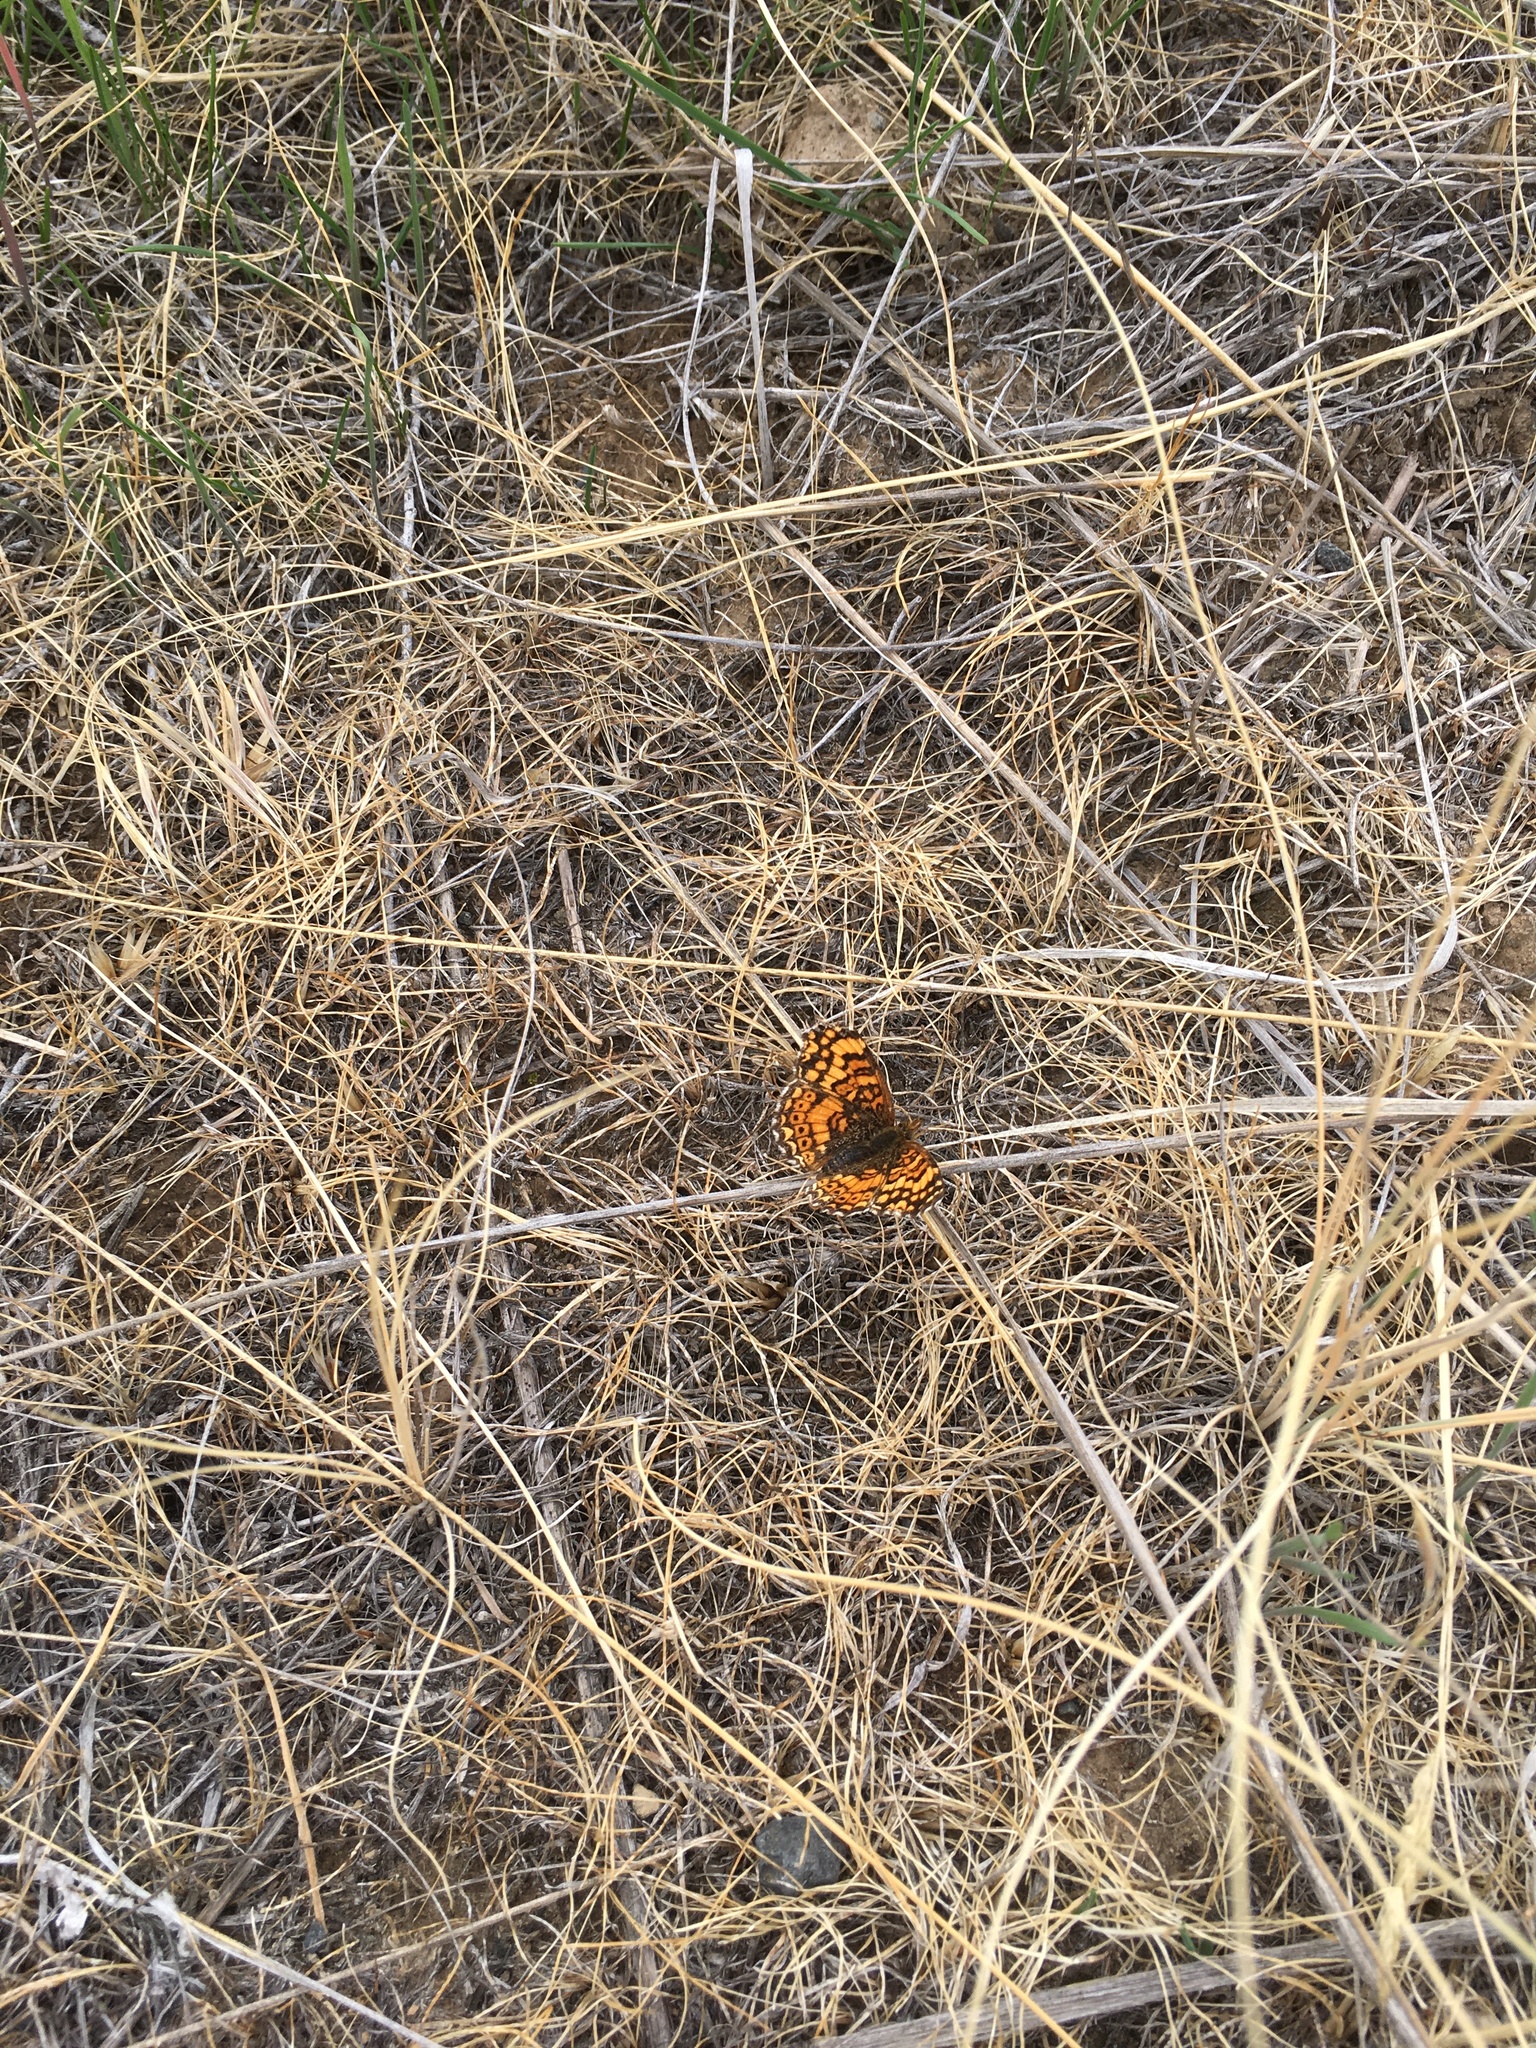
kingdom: Animalia
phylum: Arthropoda
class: Insecta
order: Lepidoptera
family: Nymphalidae
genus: Eresia
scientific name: Eresia aveyrona
